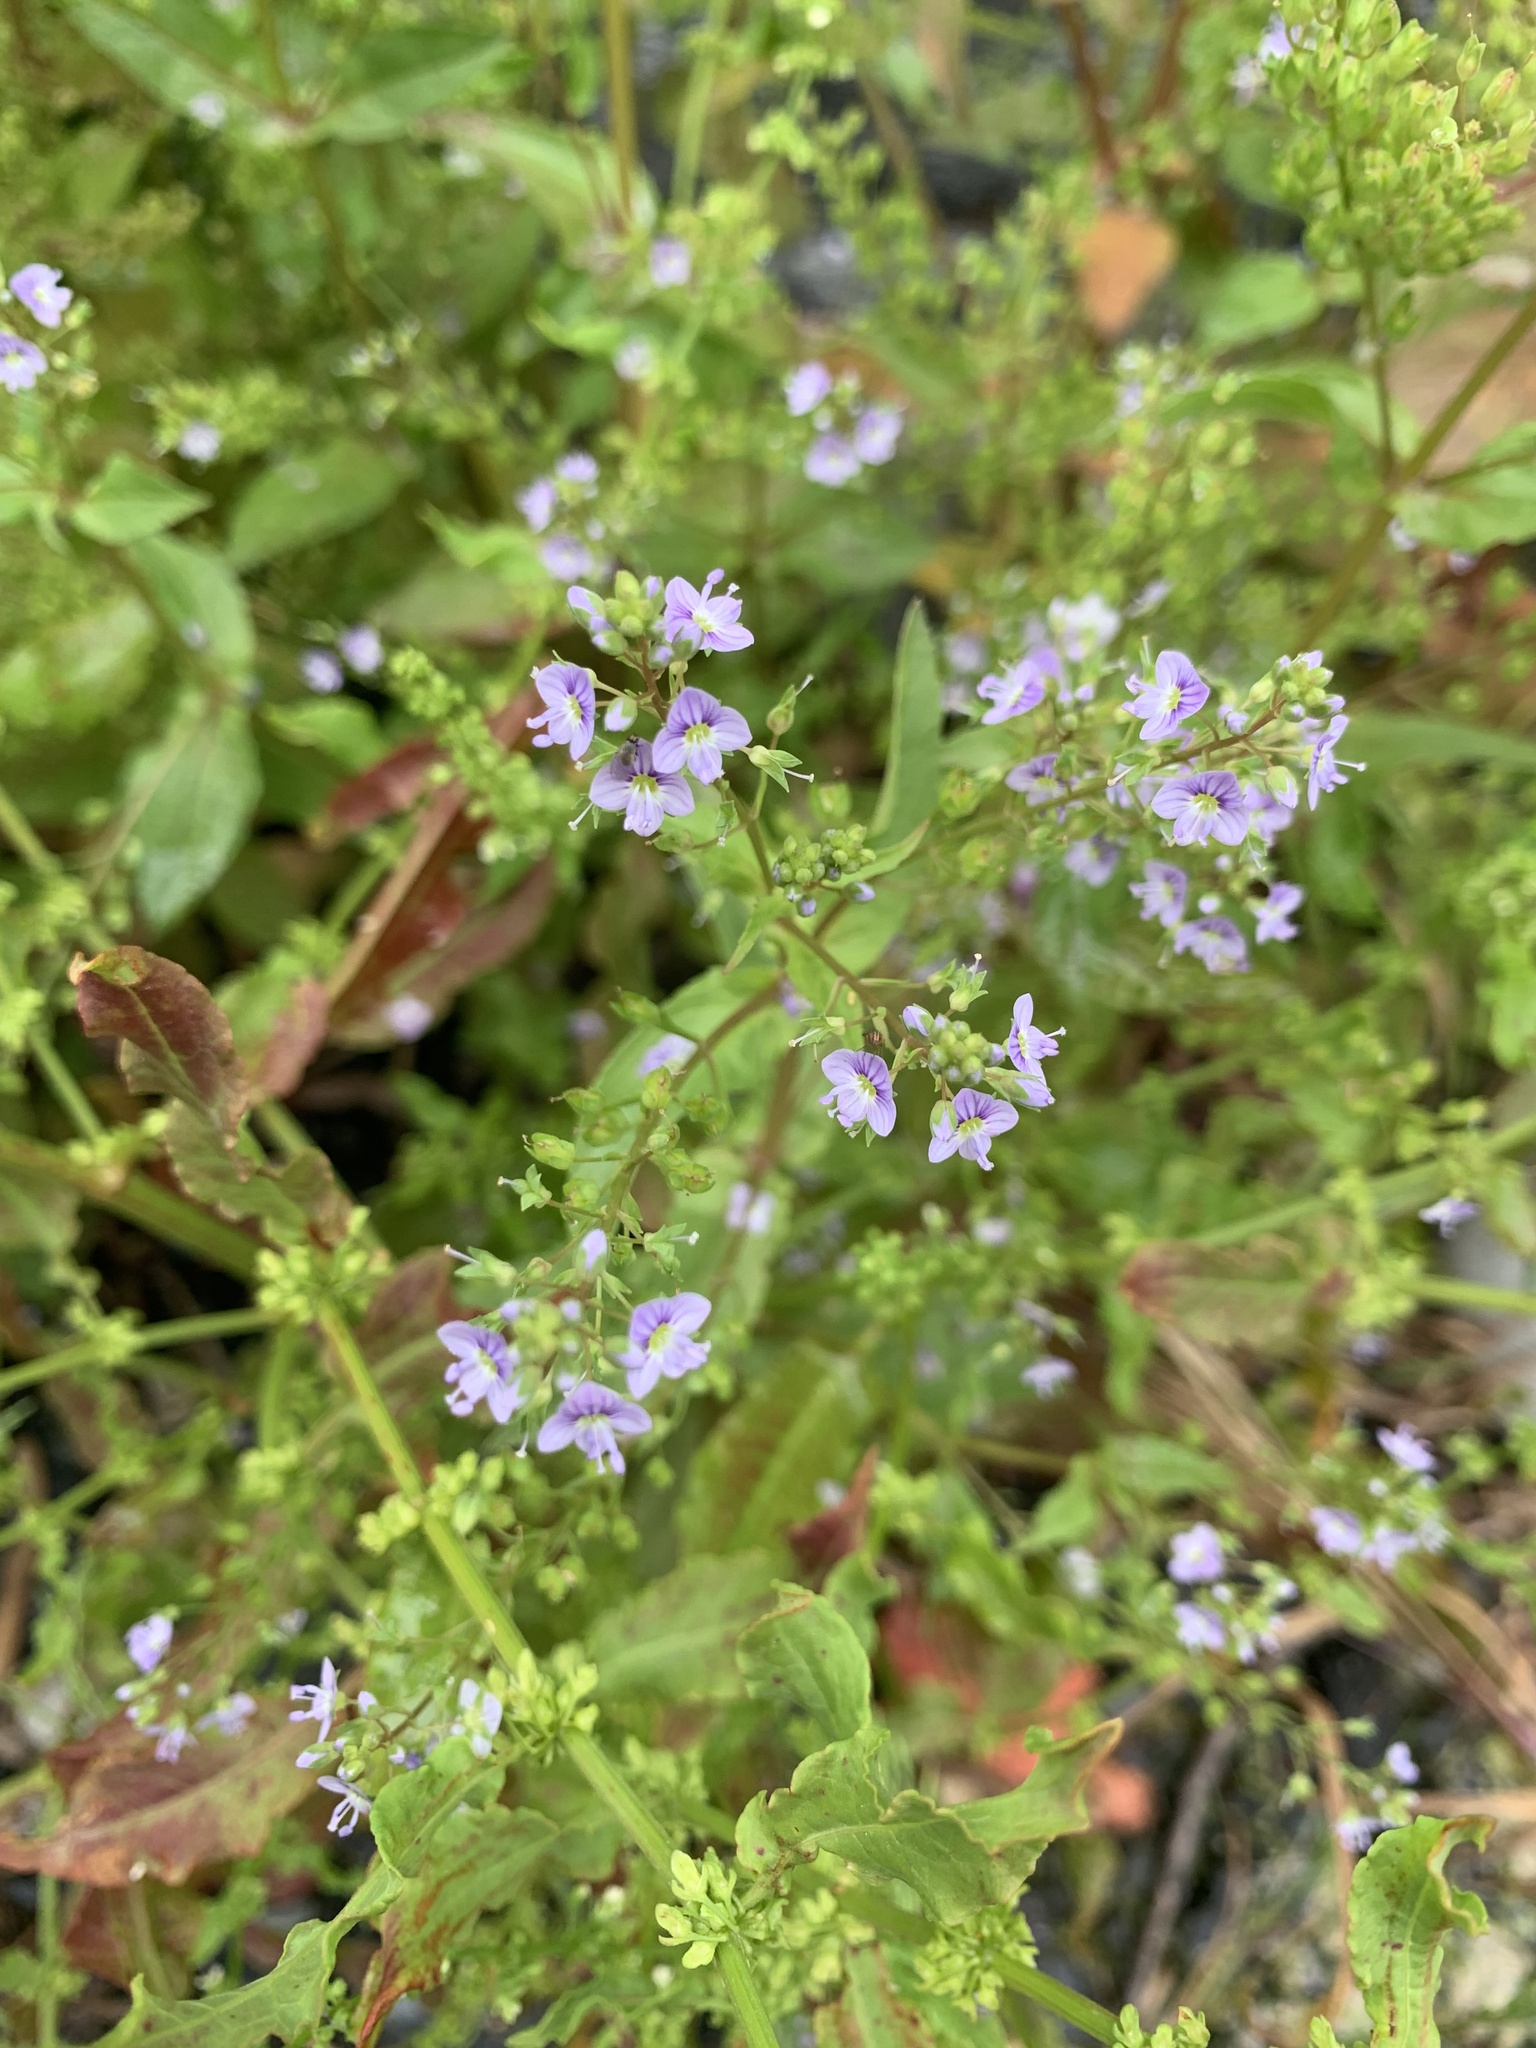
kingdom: Plantae
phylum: Tracheophyta
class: Magnoliopsida
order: Lamiales
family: Plantaginaceae
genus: Veronica
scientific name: Veronica anagallis-aquatica
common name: Water speedwell
